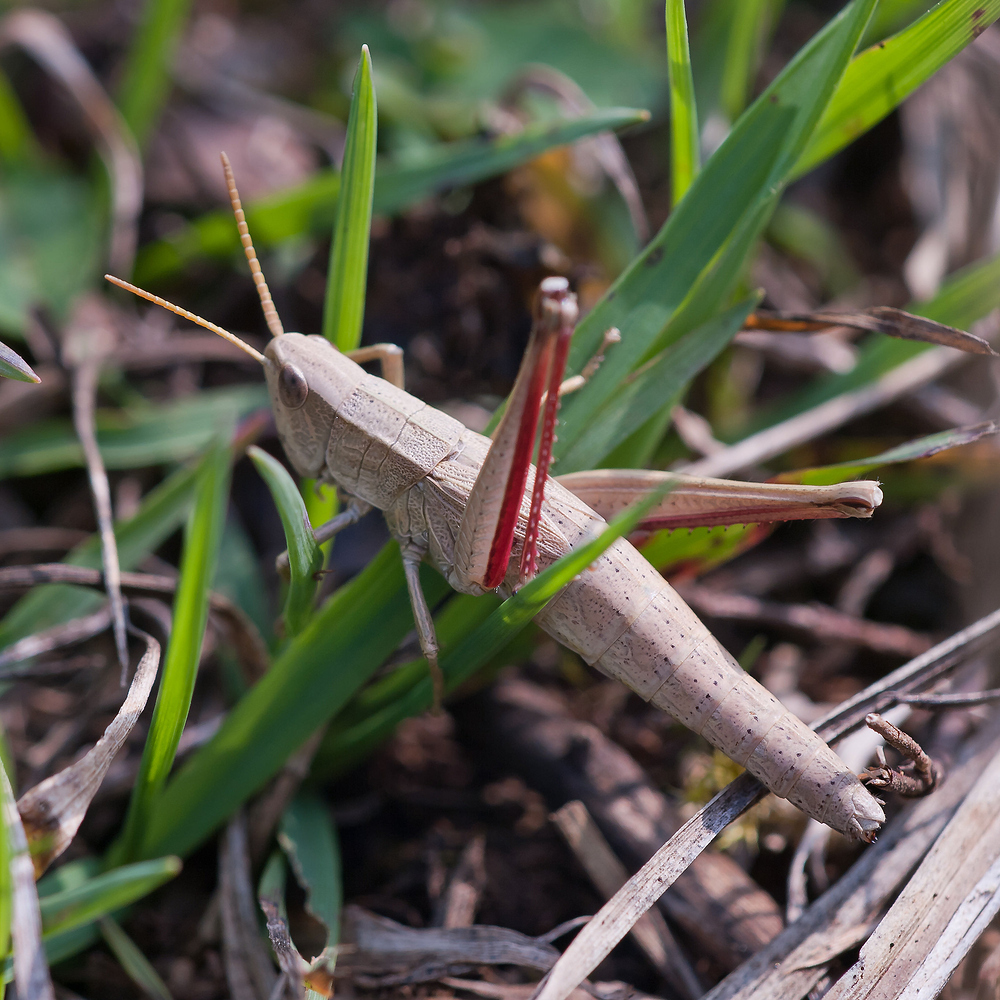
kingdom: Animalia
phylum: Arthropoda
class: Insecta
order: Orthoptera
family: Acrididae
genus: Chrysochraon
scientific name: Chrysochraon dispar
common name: Large gold grasshopper
